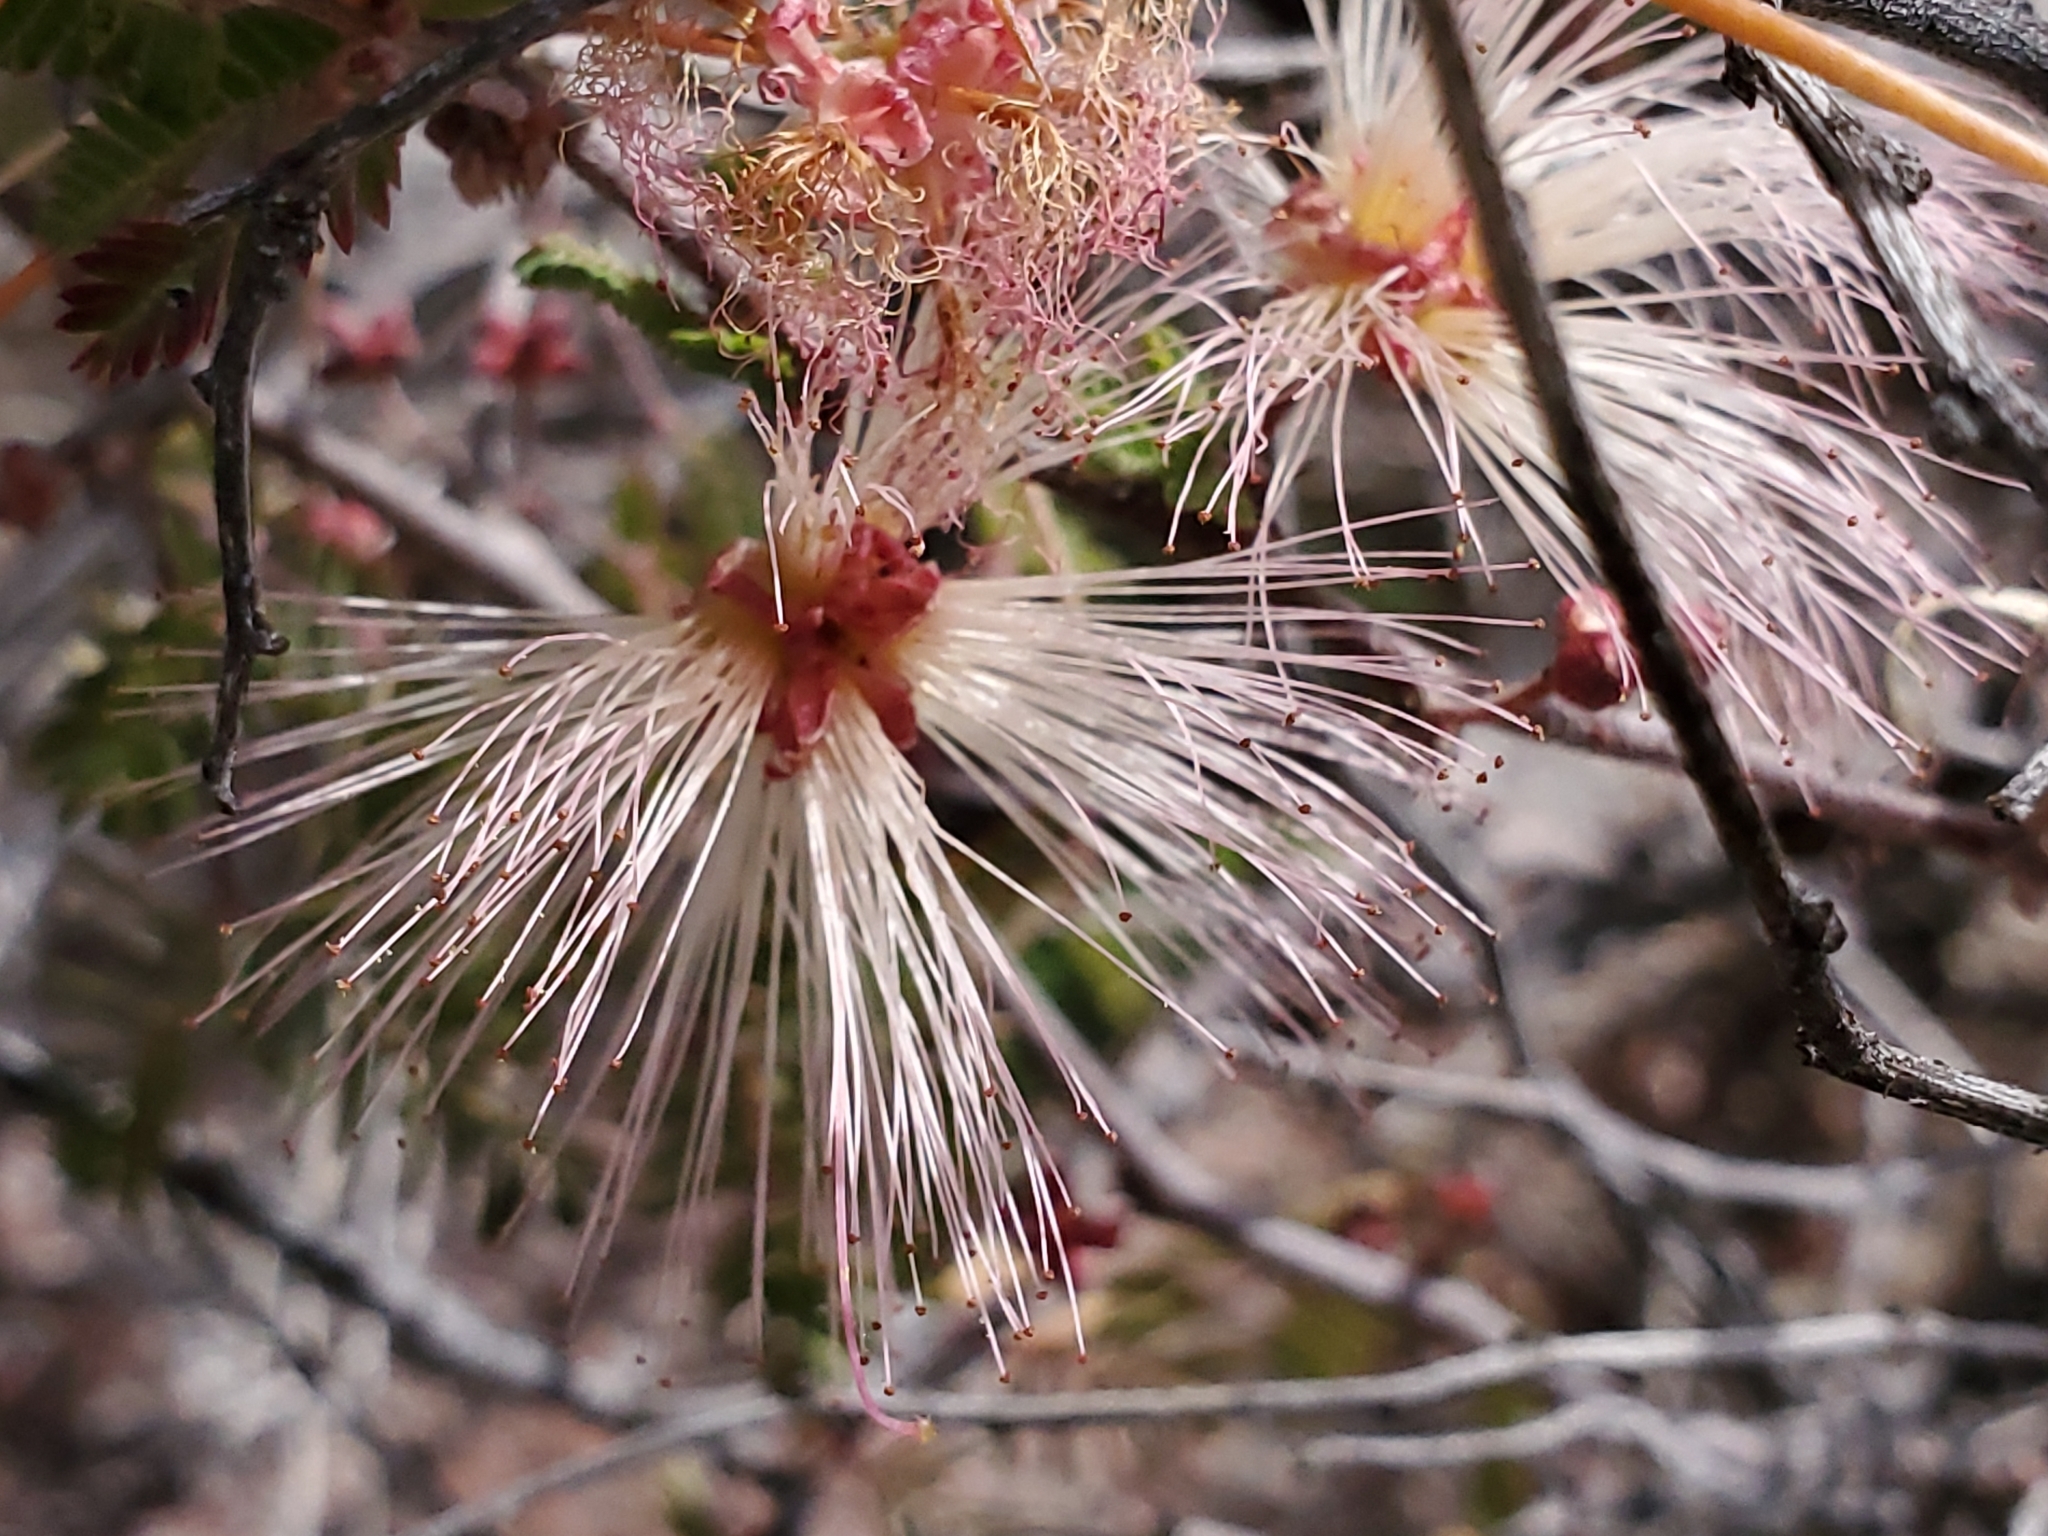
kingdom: Plantae
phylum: Tracheophyta
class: Magnoliopsida
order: Fabales
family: Fabaceae
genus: Calliandra
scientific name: Calliandra eriophylla
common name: Fairy-duster
